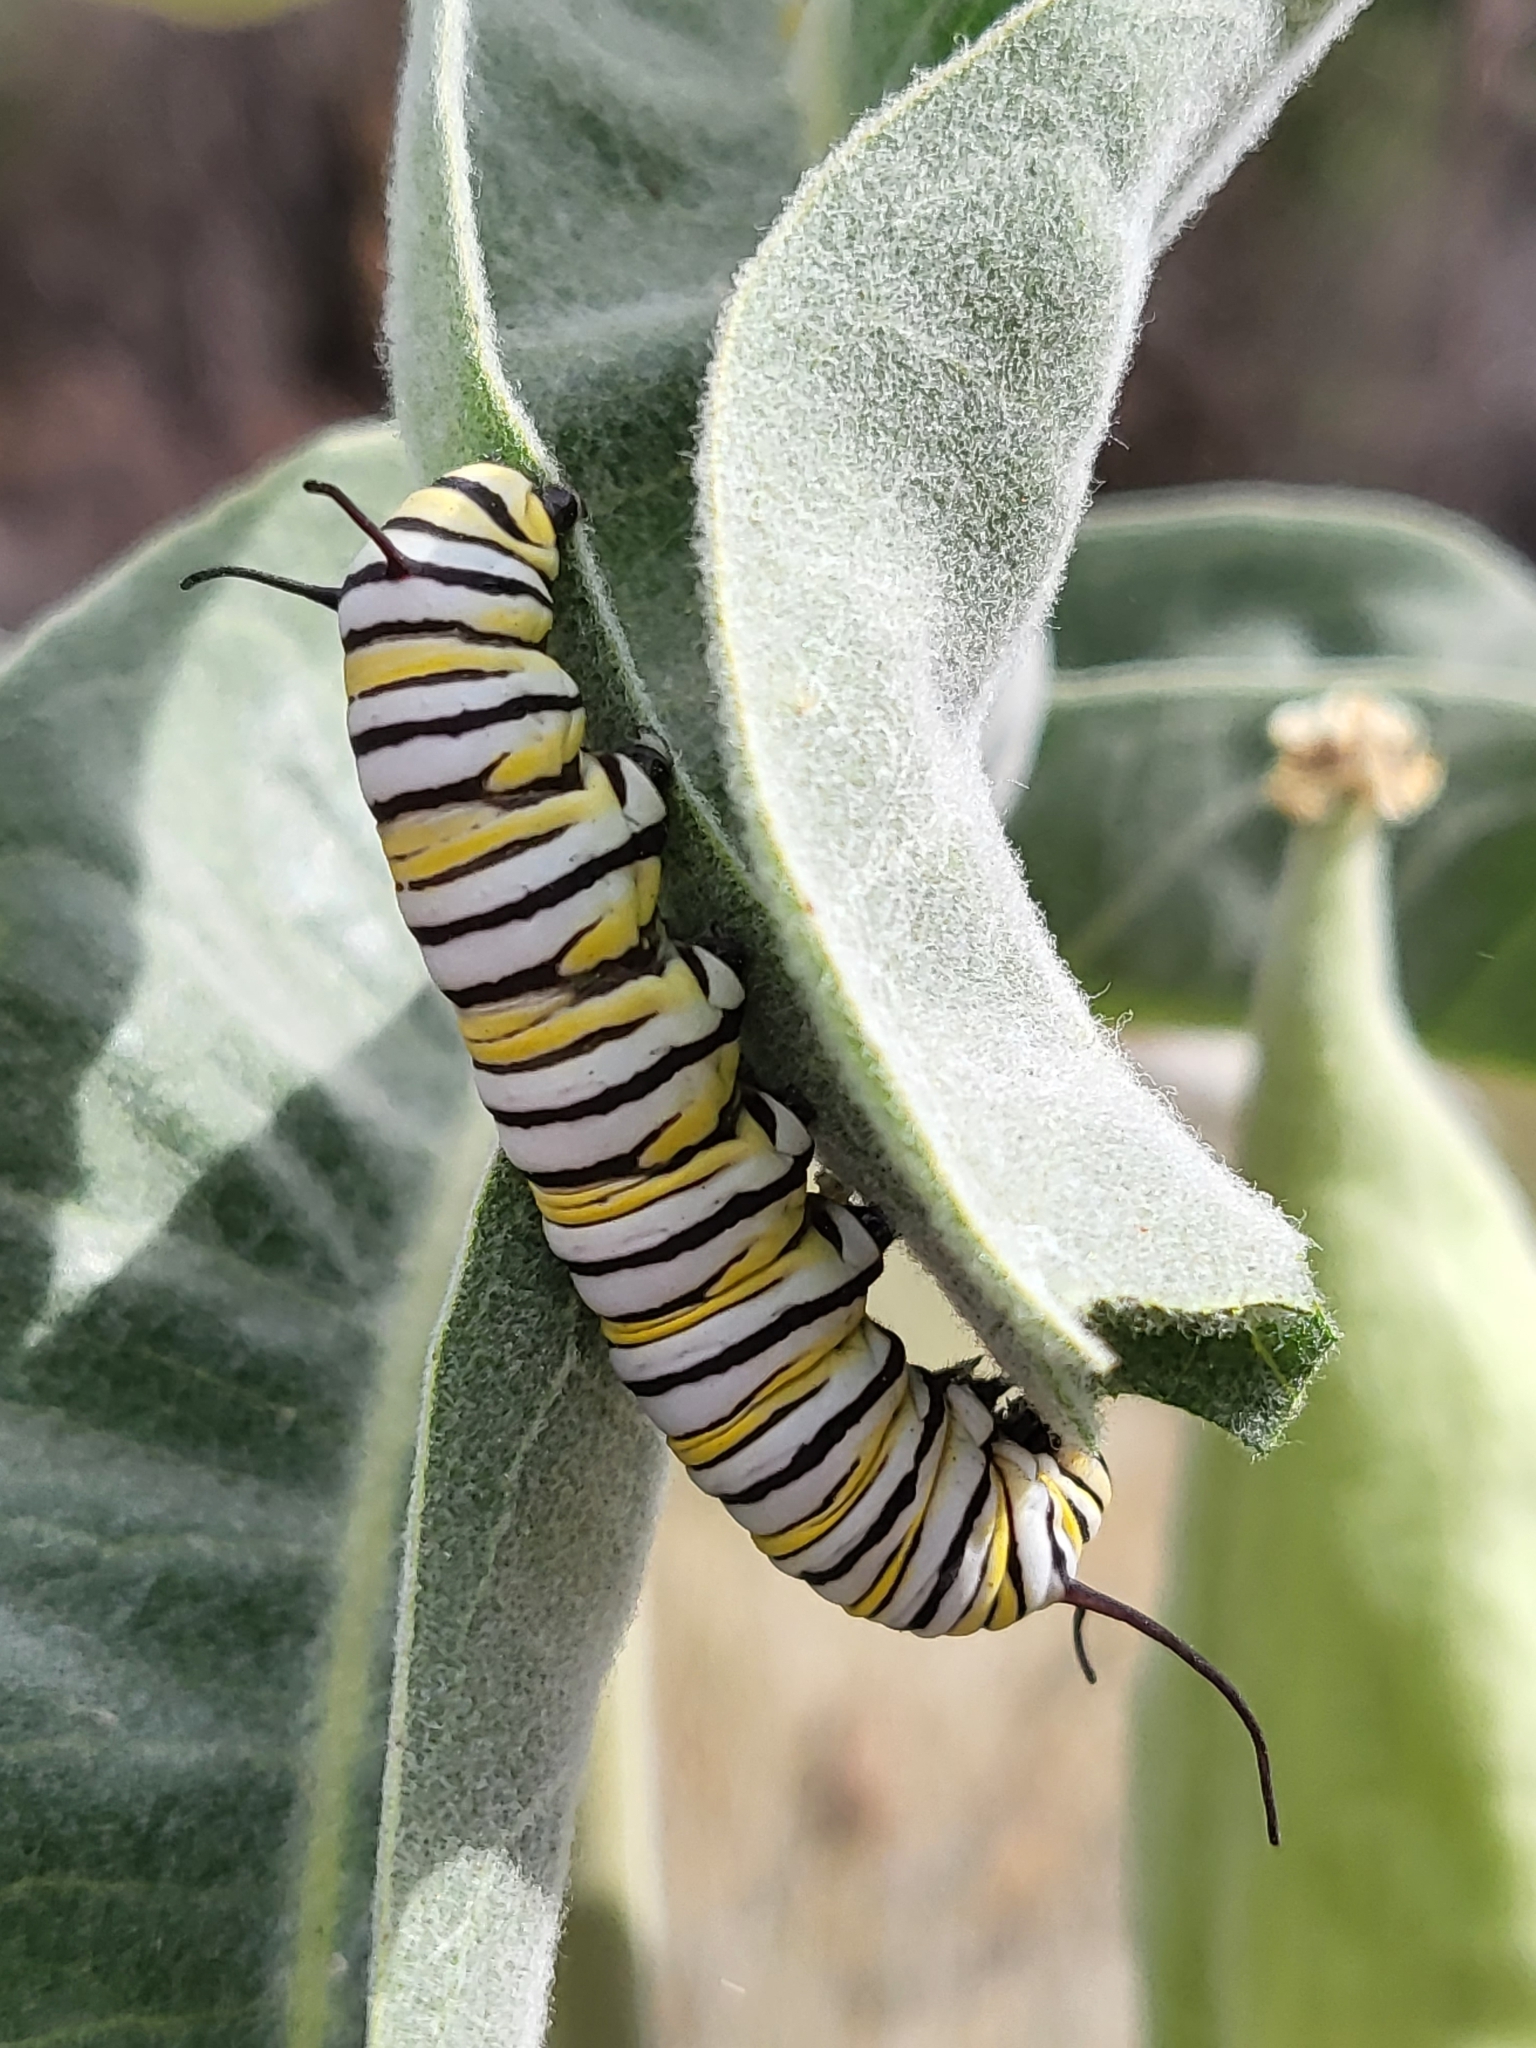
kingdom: Animalia
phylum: Arthropoda
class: Insecta
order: Lepidoptera
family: Nymphalidae
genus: Danaus
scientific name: Danaus plexippus
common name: Monarch
